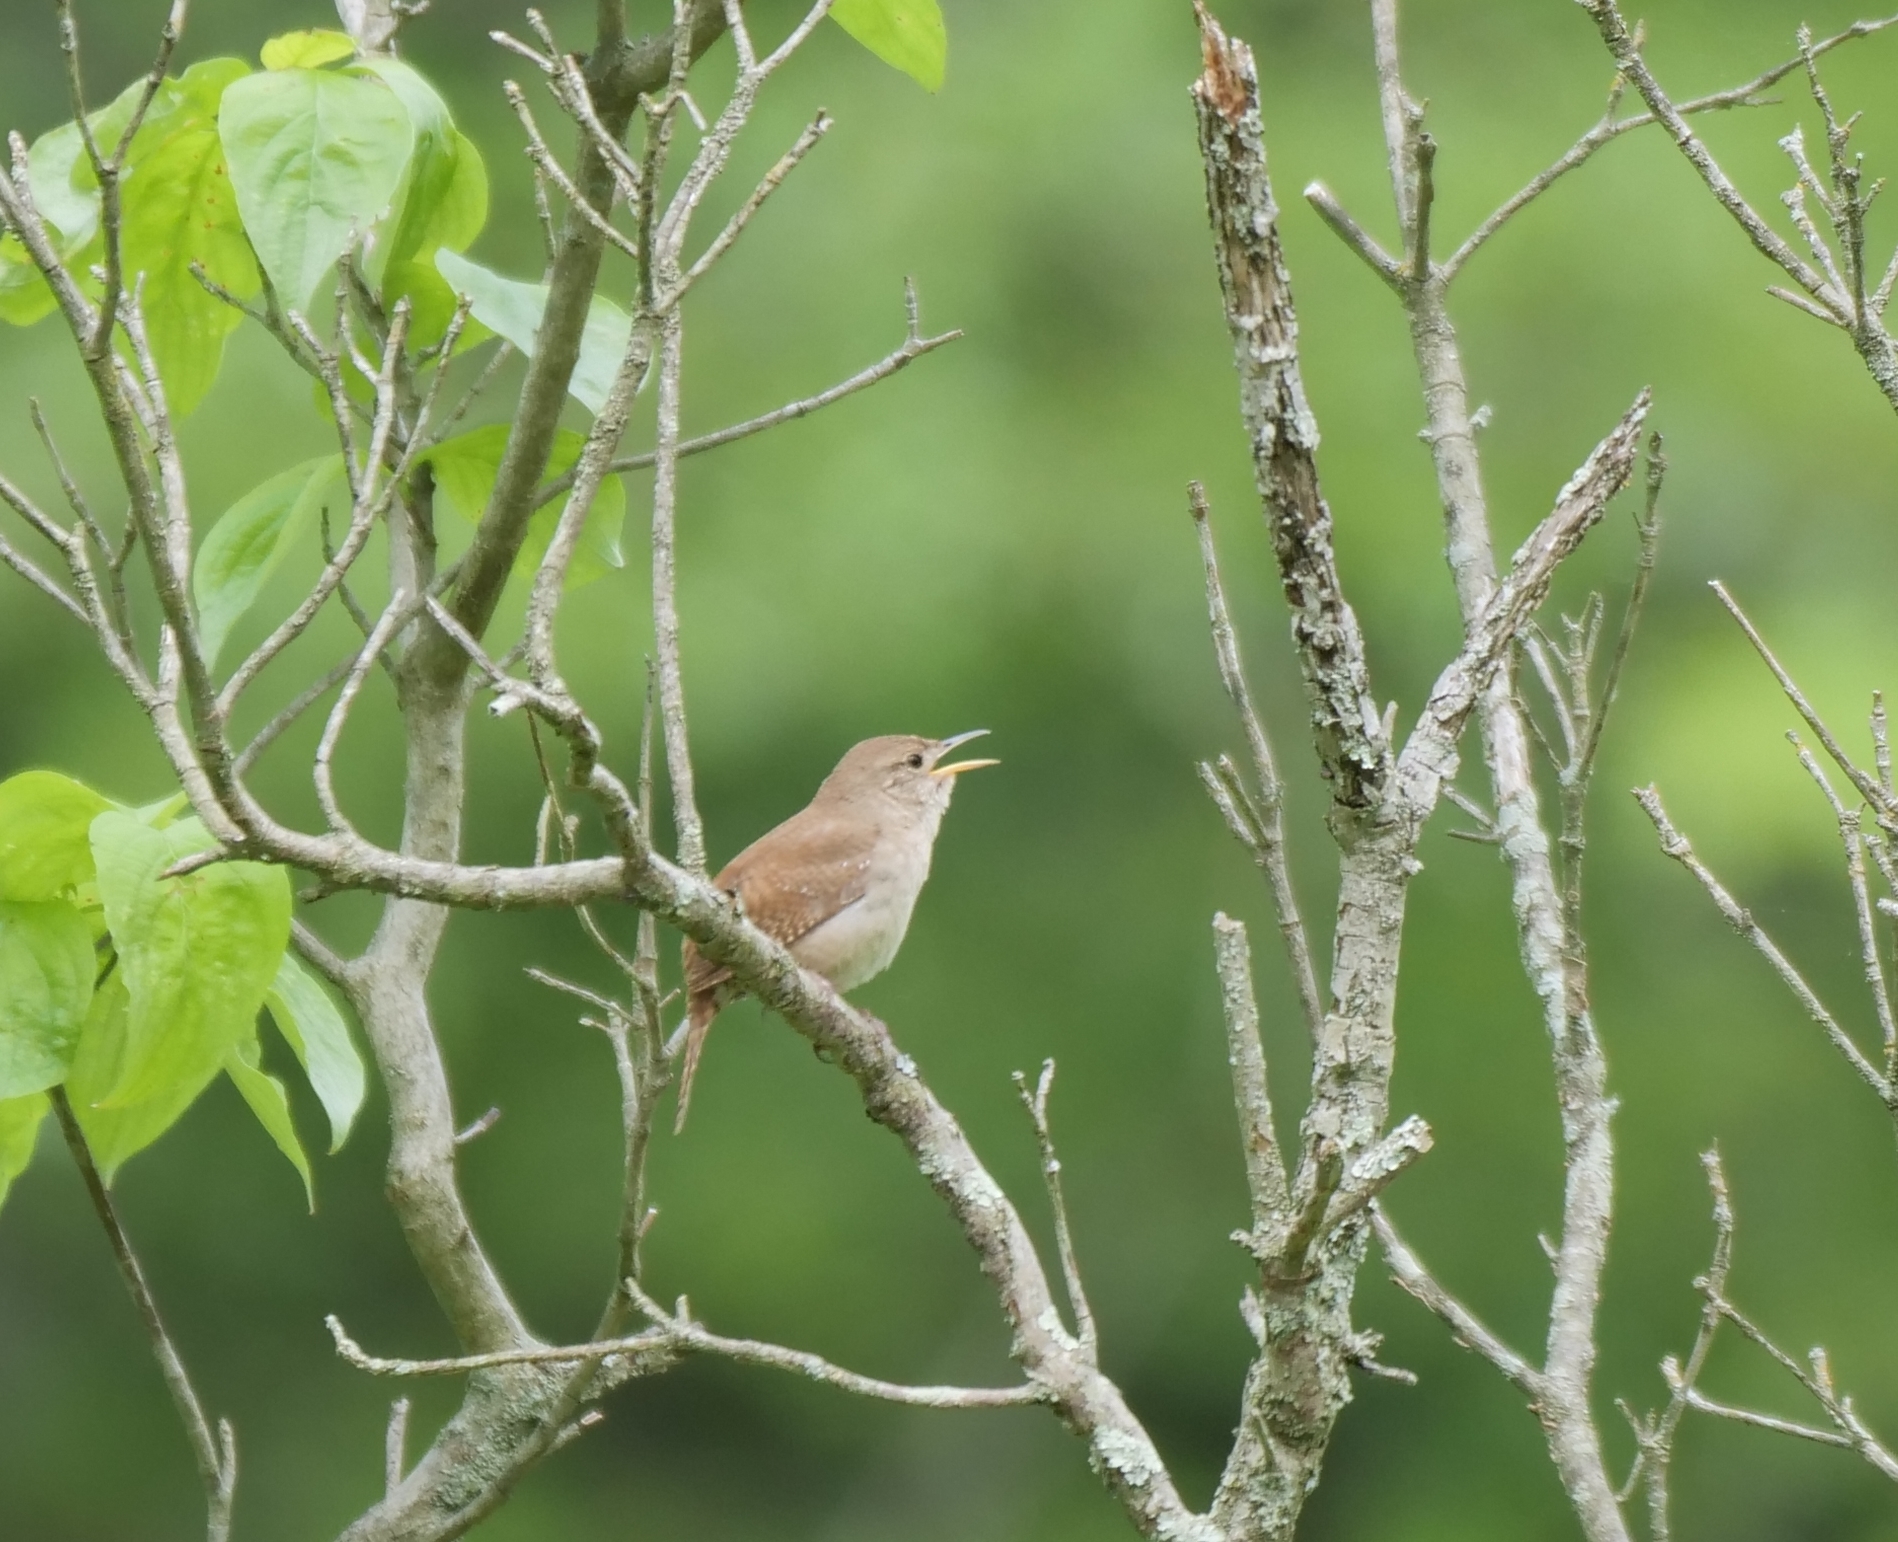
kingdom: Animalia
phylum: Chordata
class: Aves
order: Passeriformes
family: Troglodytidae
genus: Troglodytes
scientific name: Troglodytes aedon
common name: House wren
